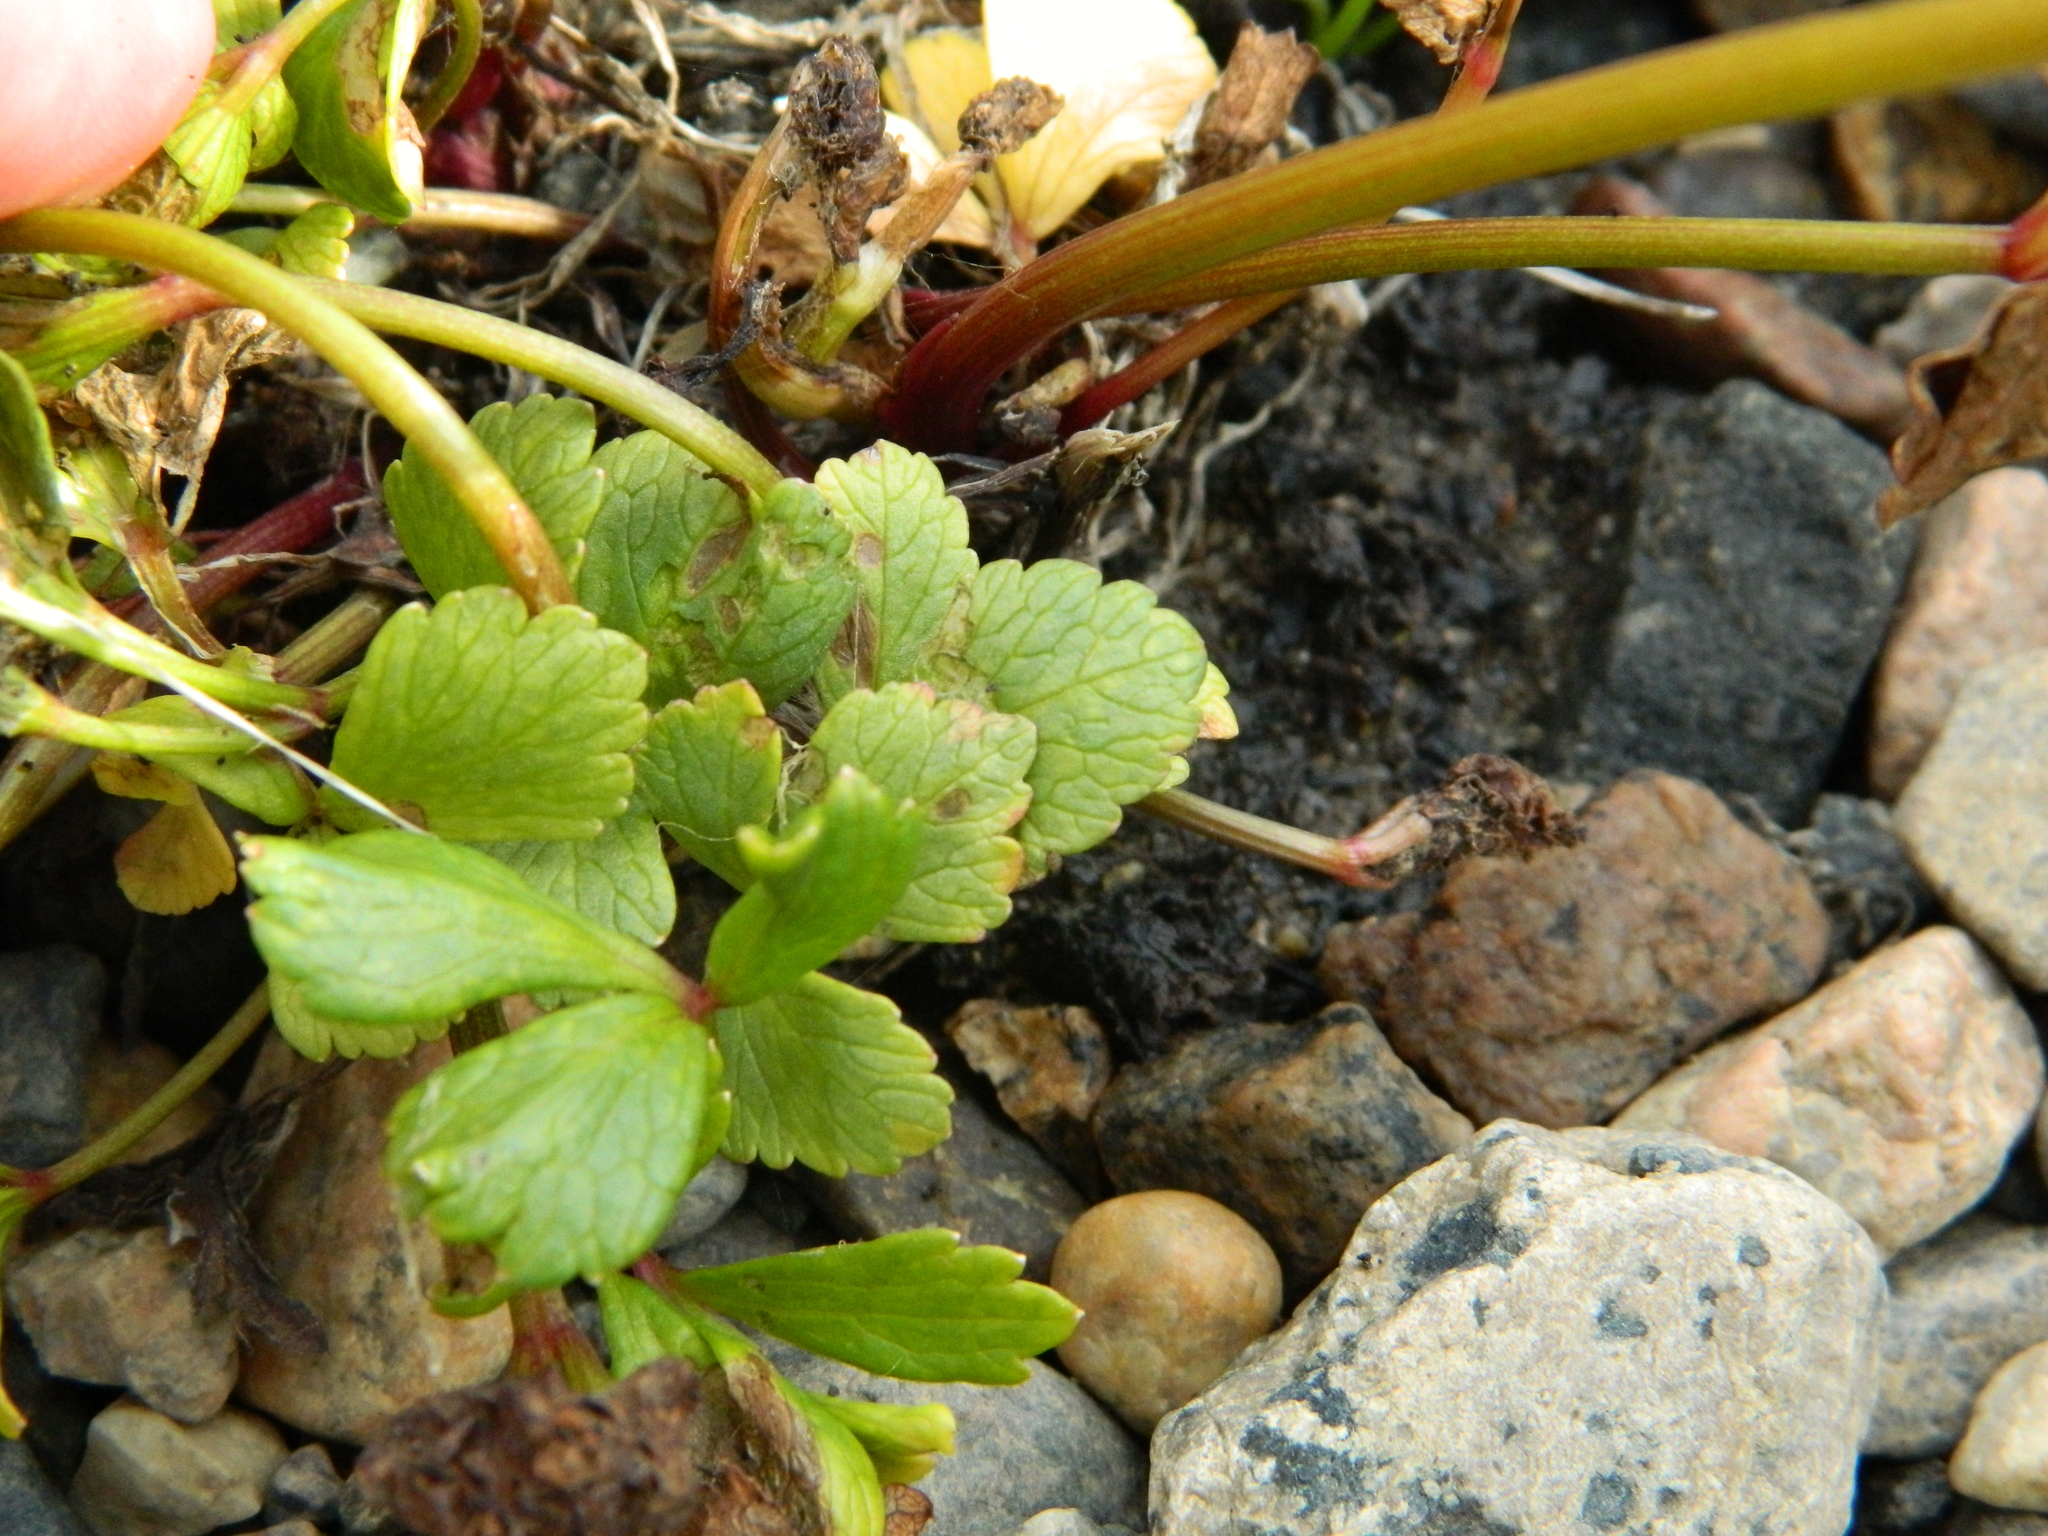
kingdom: Plantae
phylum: Tracheophyta
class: Magnoliopsida
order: Apiales
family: Apiaceae
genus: Ligusticum
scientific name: Ligusticum scothicum
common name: Beach lovage
